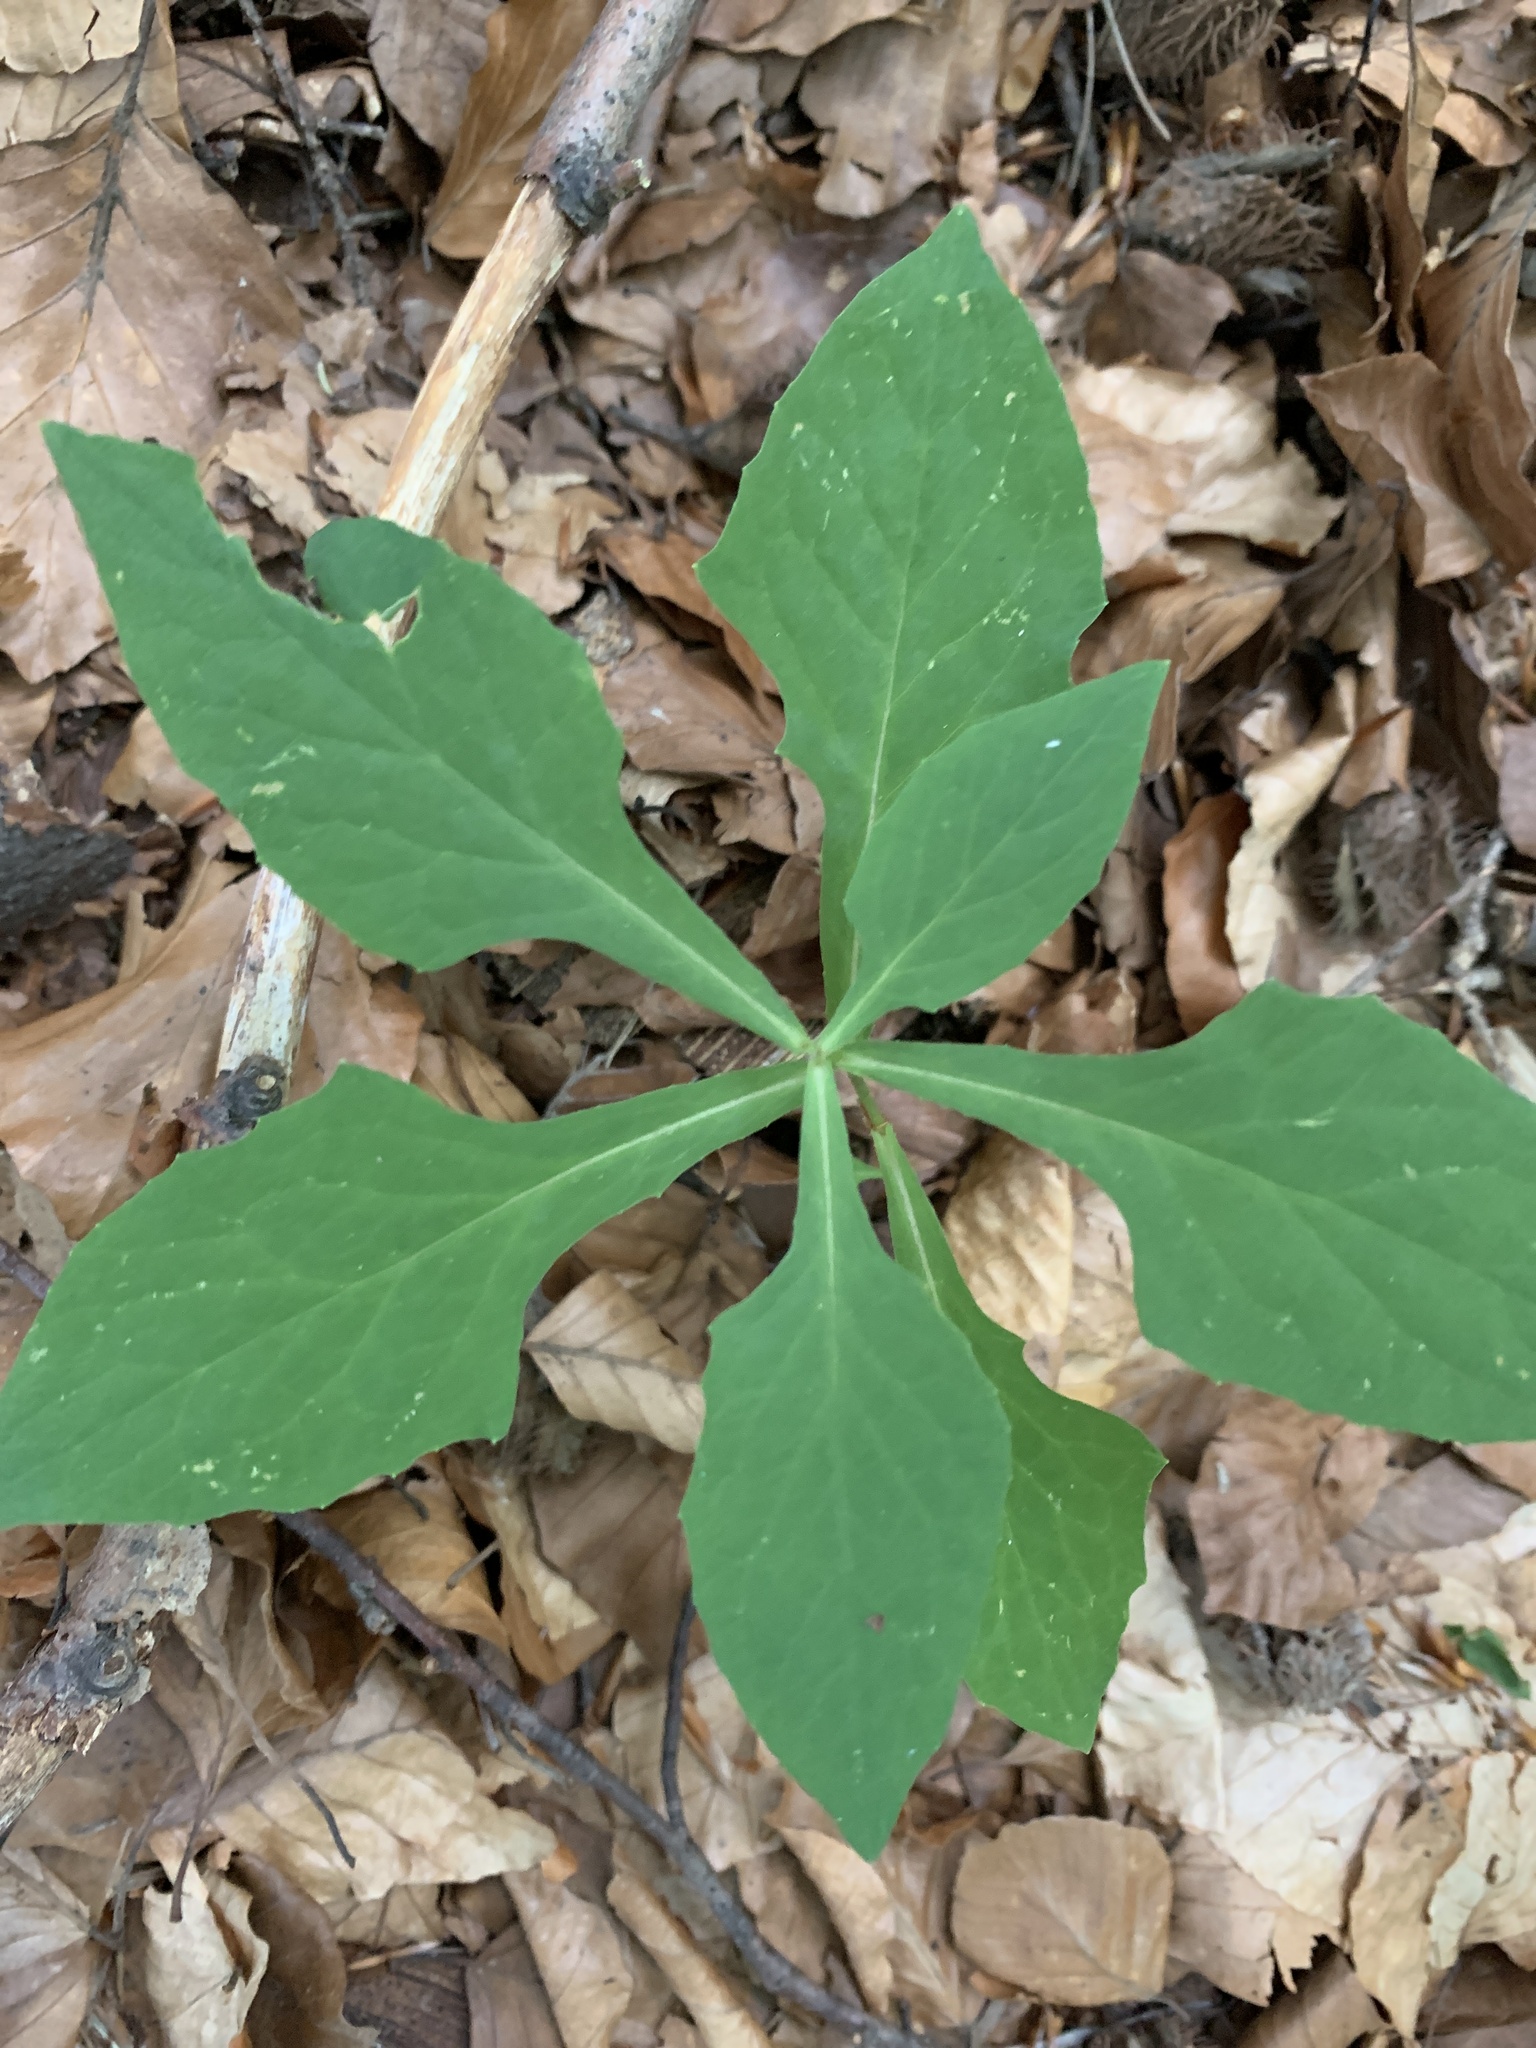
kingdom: Plantae
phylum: Tracheophyta
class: Magnoliopsida
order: Asterales
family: Asteraceae
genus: Prenanthes
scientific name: Prenanthes purpurea
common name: Purple lettuce
